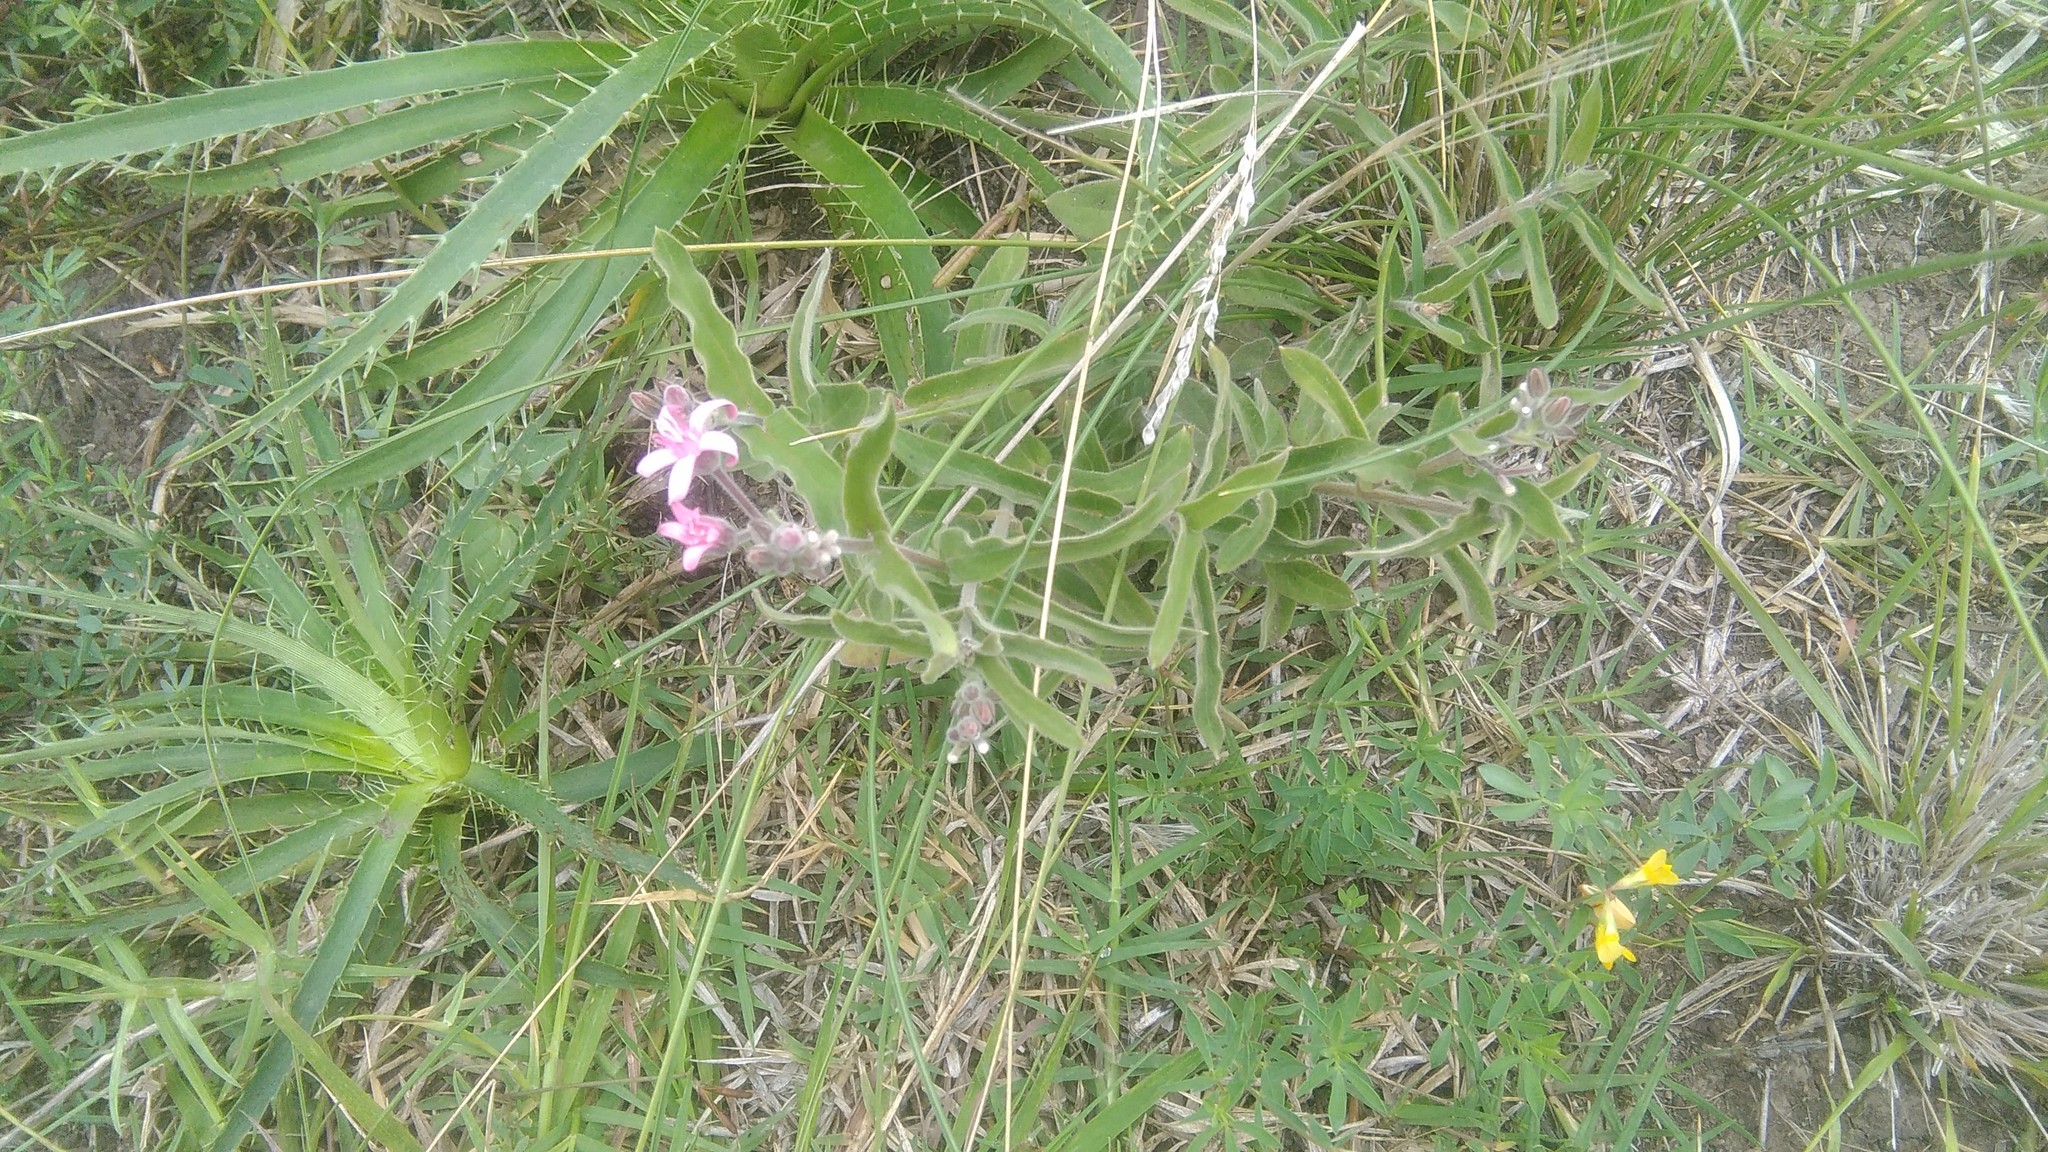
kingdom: Plantae
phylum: Tracheophyta
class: Magnoliopsida
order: Gentianales
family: Apocynaceae
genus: Oxypetalum
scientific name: Oxypetalum solanoides
